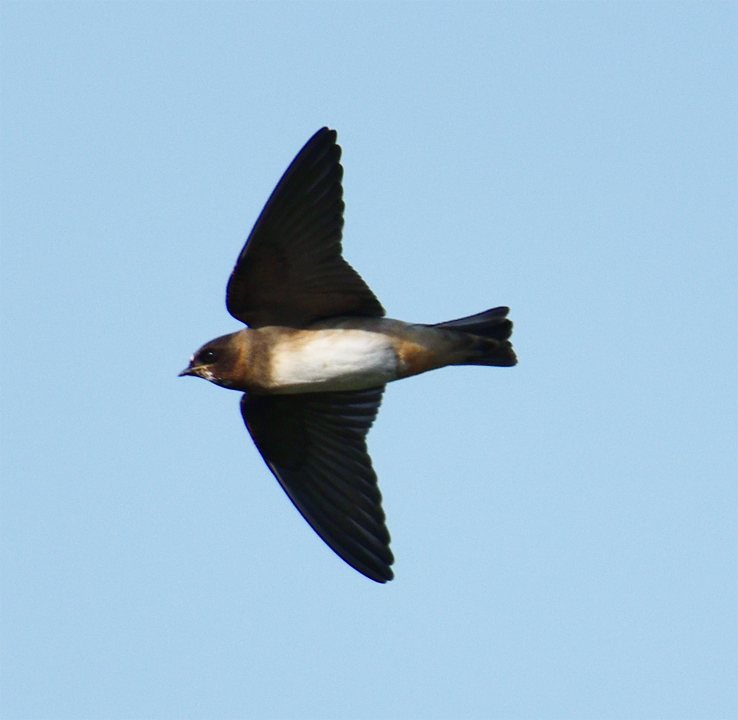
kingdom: Animalia
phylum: Chordata
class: Aves
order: Passeriformes
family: Hirundinidae
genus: Petrochelidon
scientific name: Petrochelidon pyrrhonota
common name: American cliff swallow
